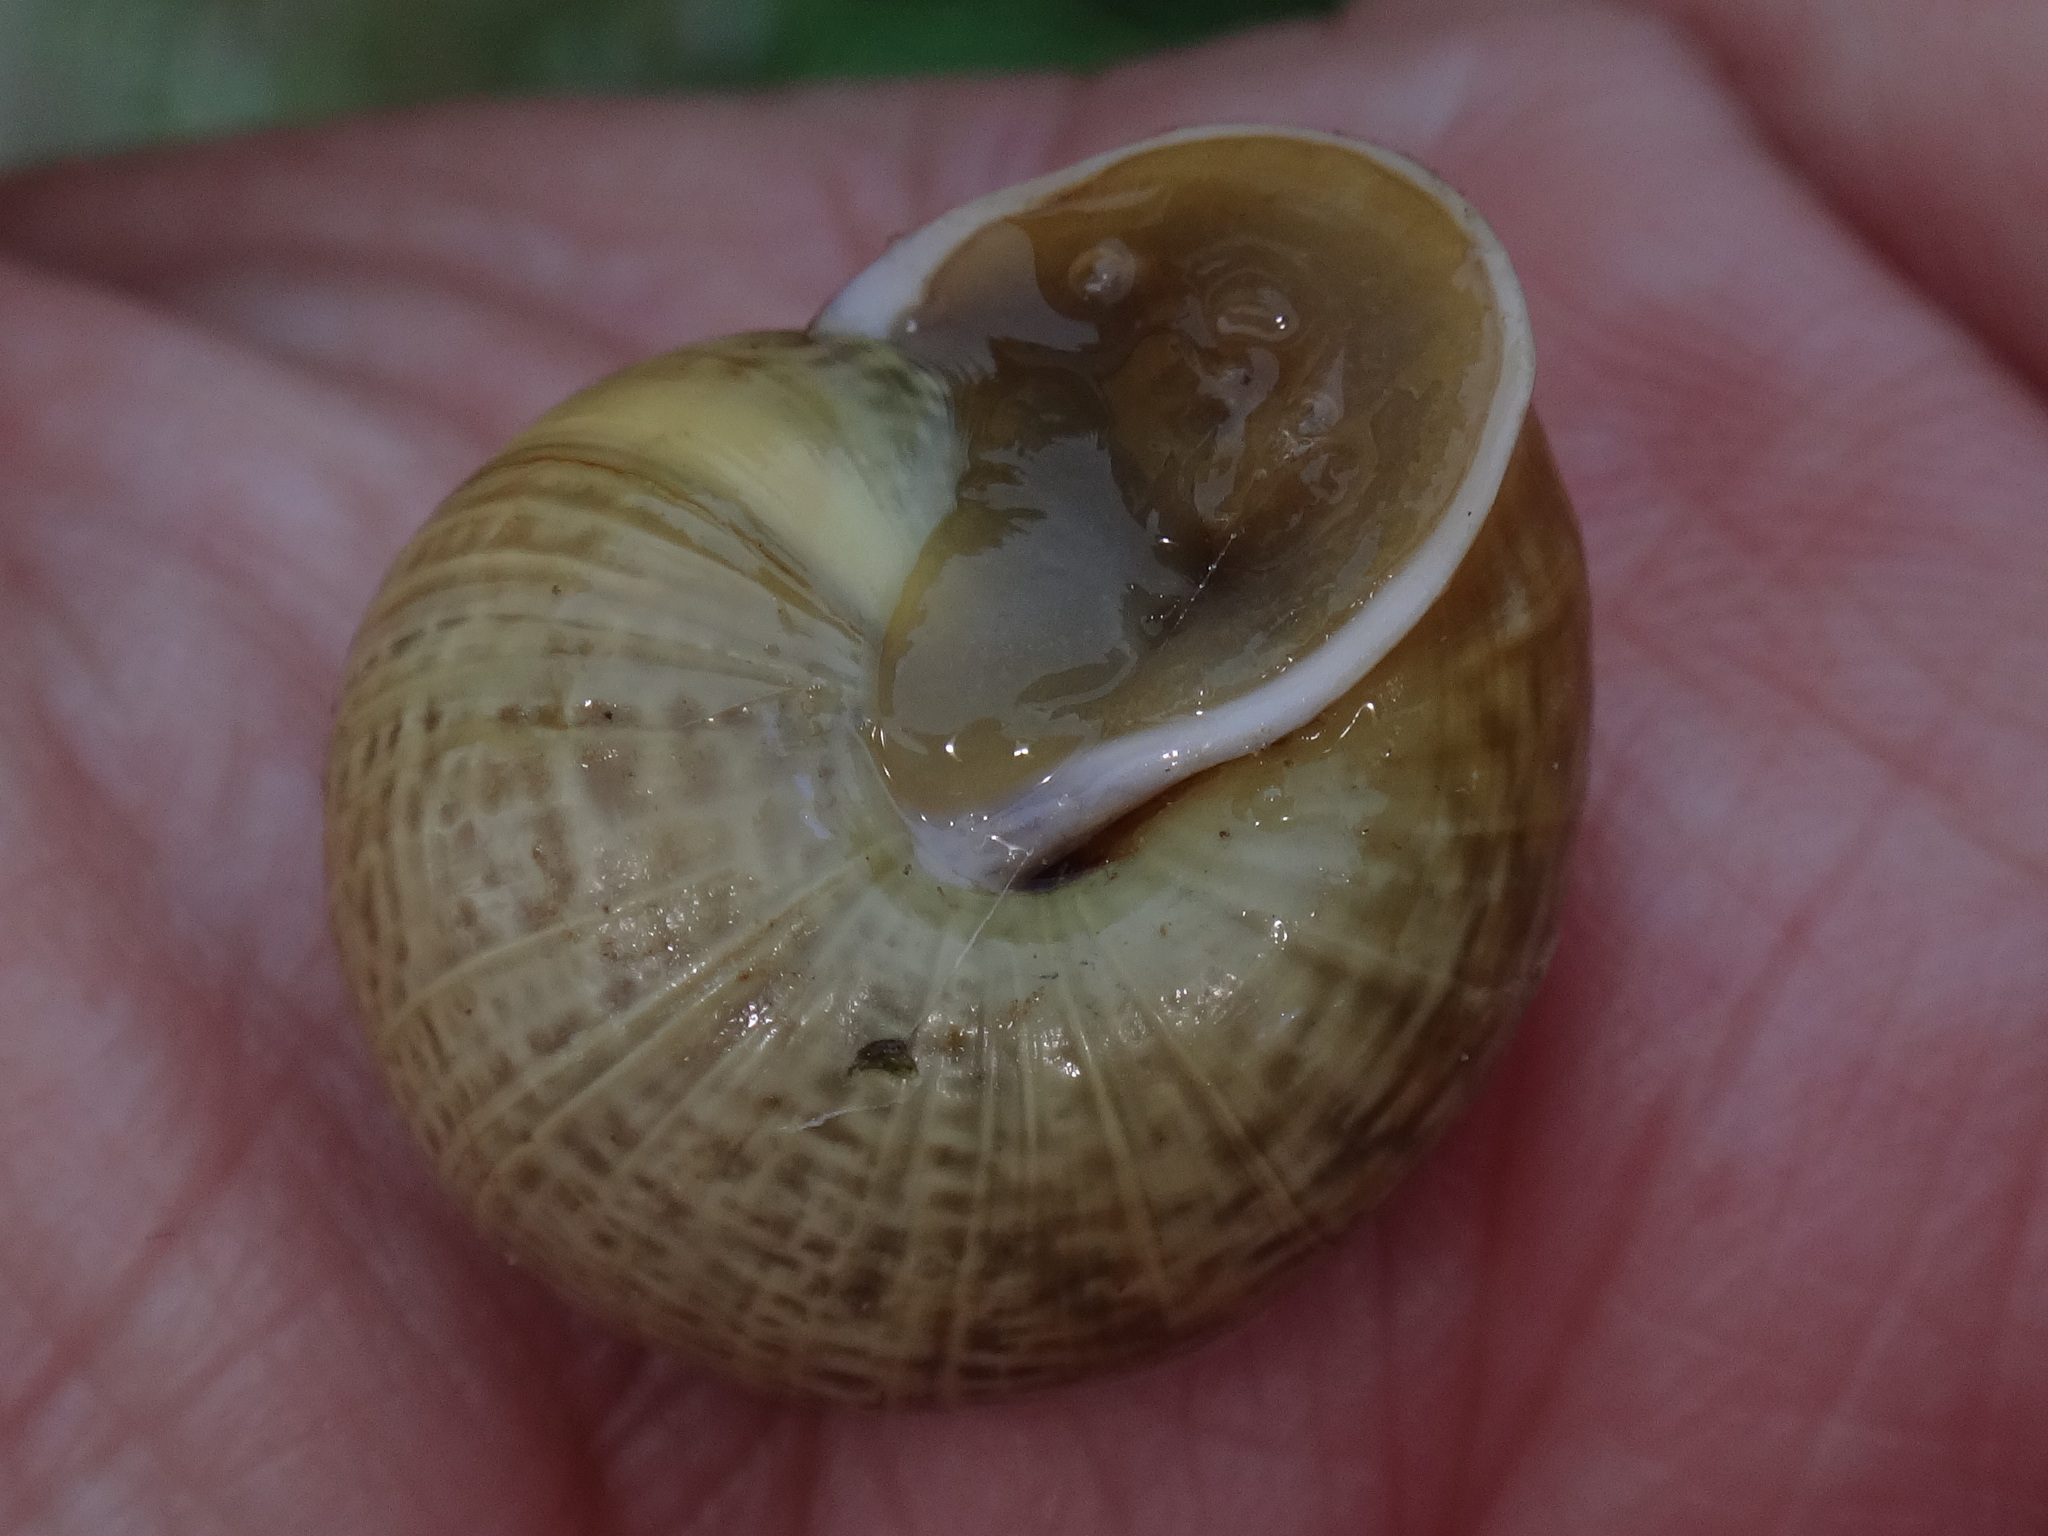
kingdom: Animalia
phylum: Mollusca
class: Gastropoda
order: Stylommatophora
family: Helicidae
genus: Arianta
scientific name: Arianta arbustorum
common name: Copse snail
